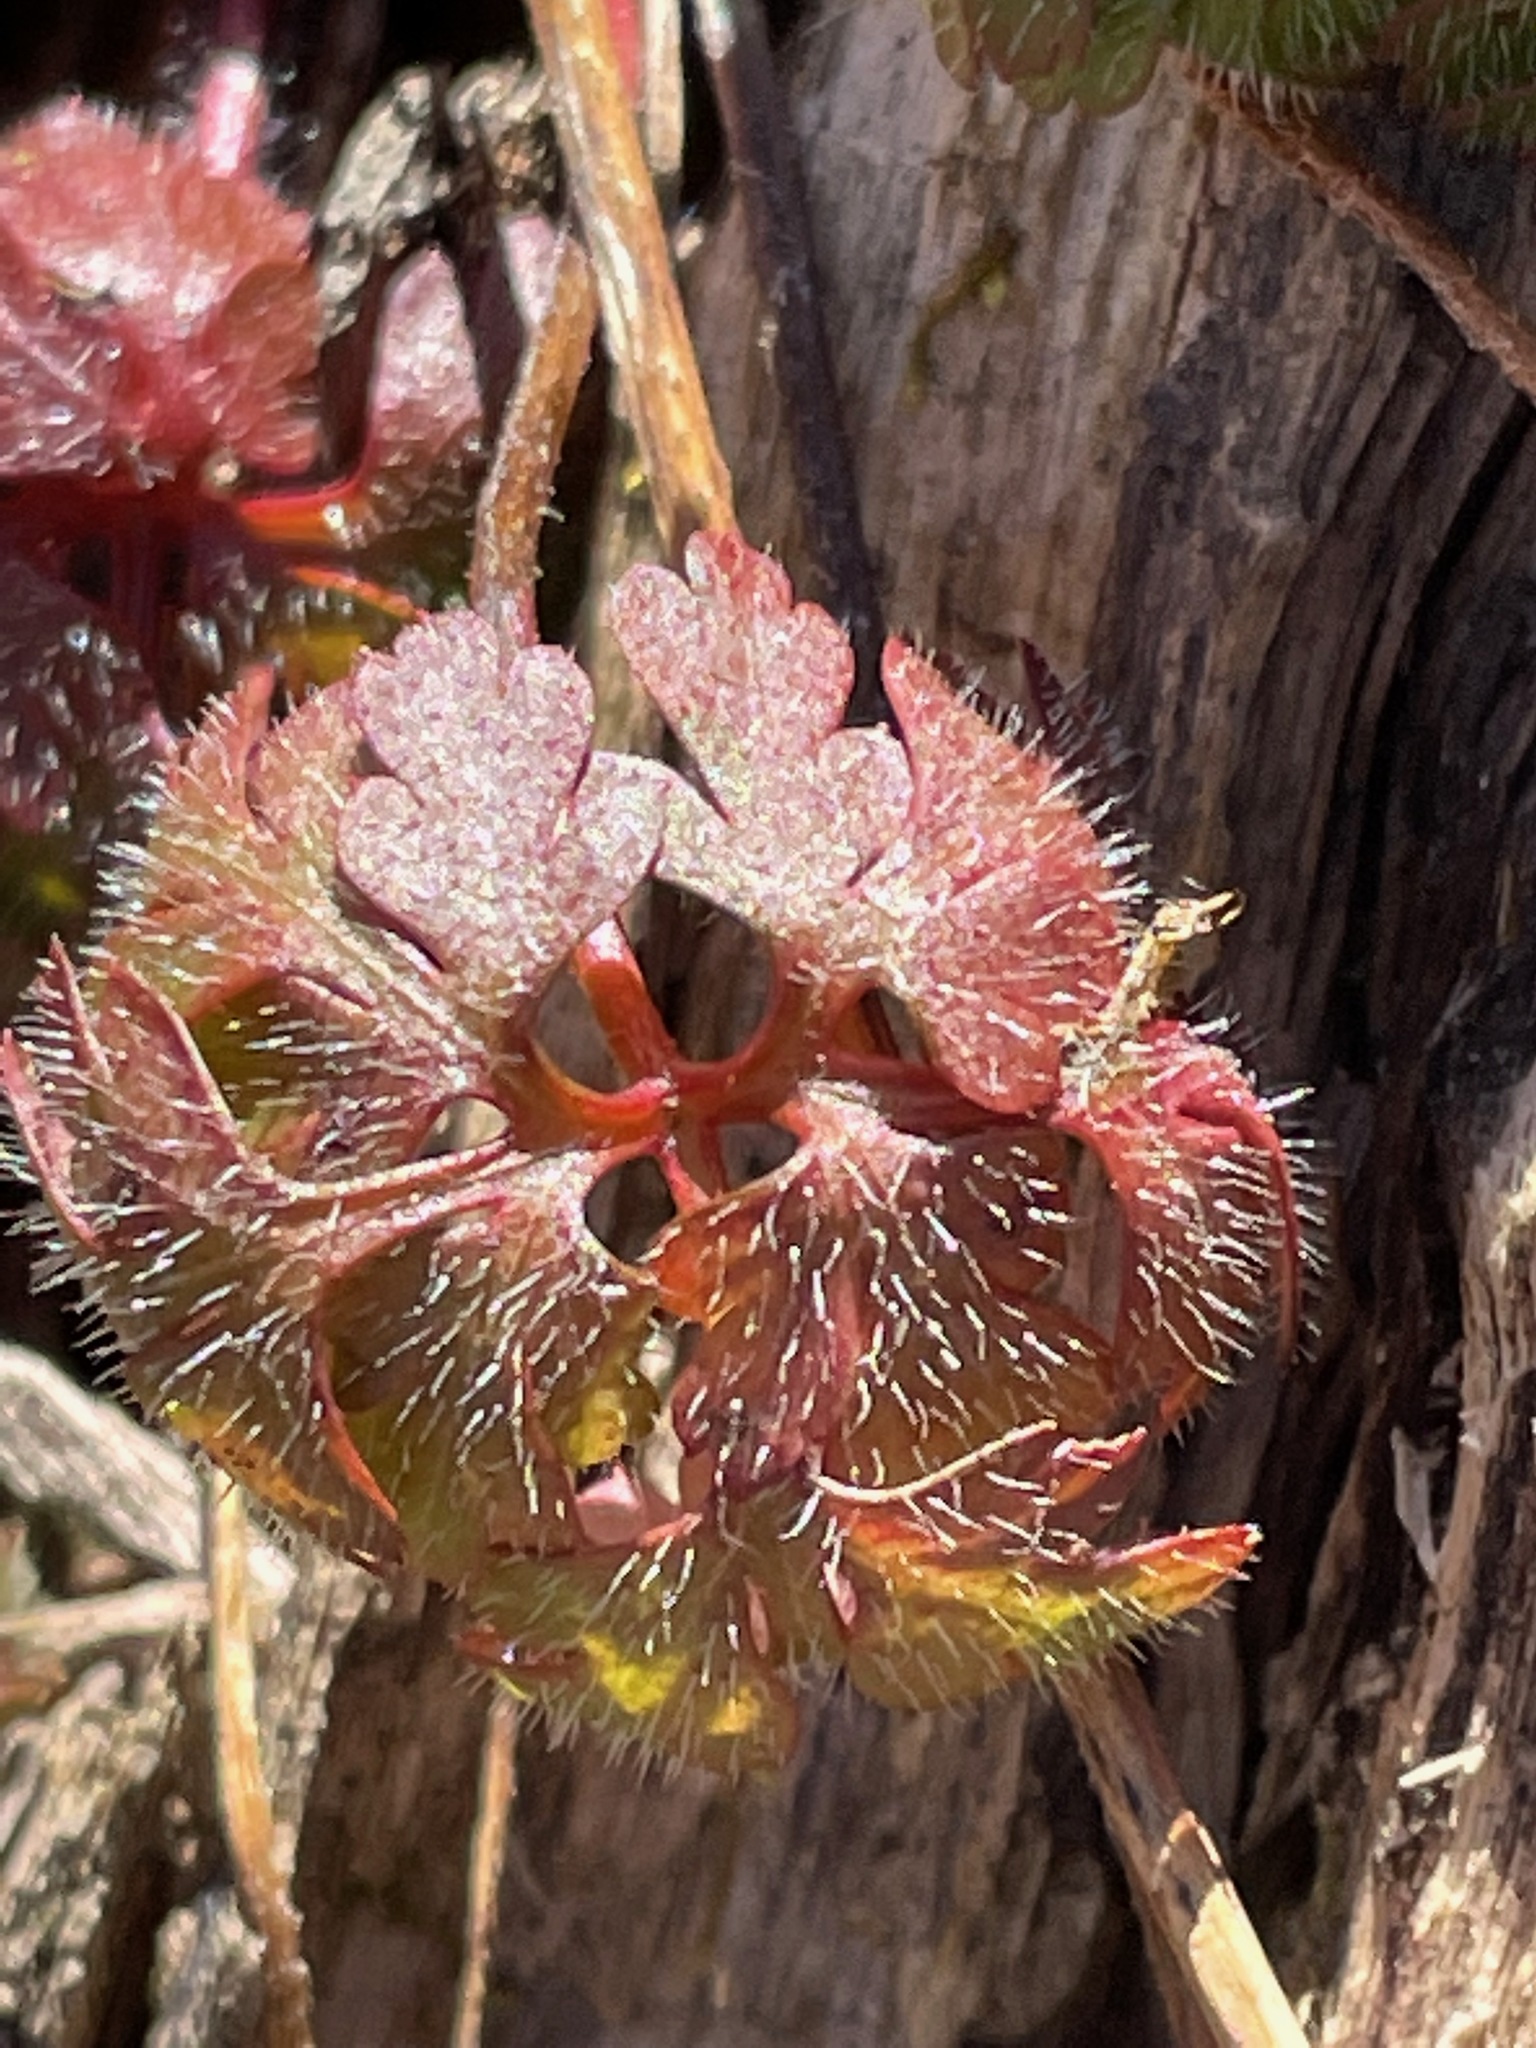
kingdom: Plantae
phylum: Tracheophyta
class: Magnoliopsida
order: Geraniales
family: Geraniaceae
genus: Geranium
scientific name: Geranium robertianum
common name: Herb-robert
